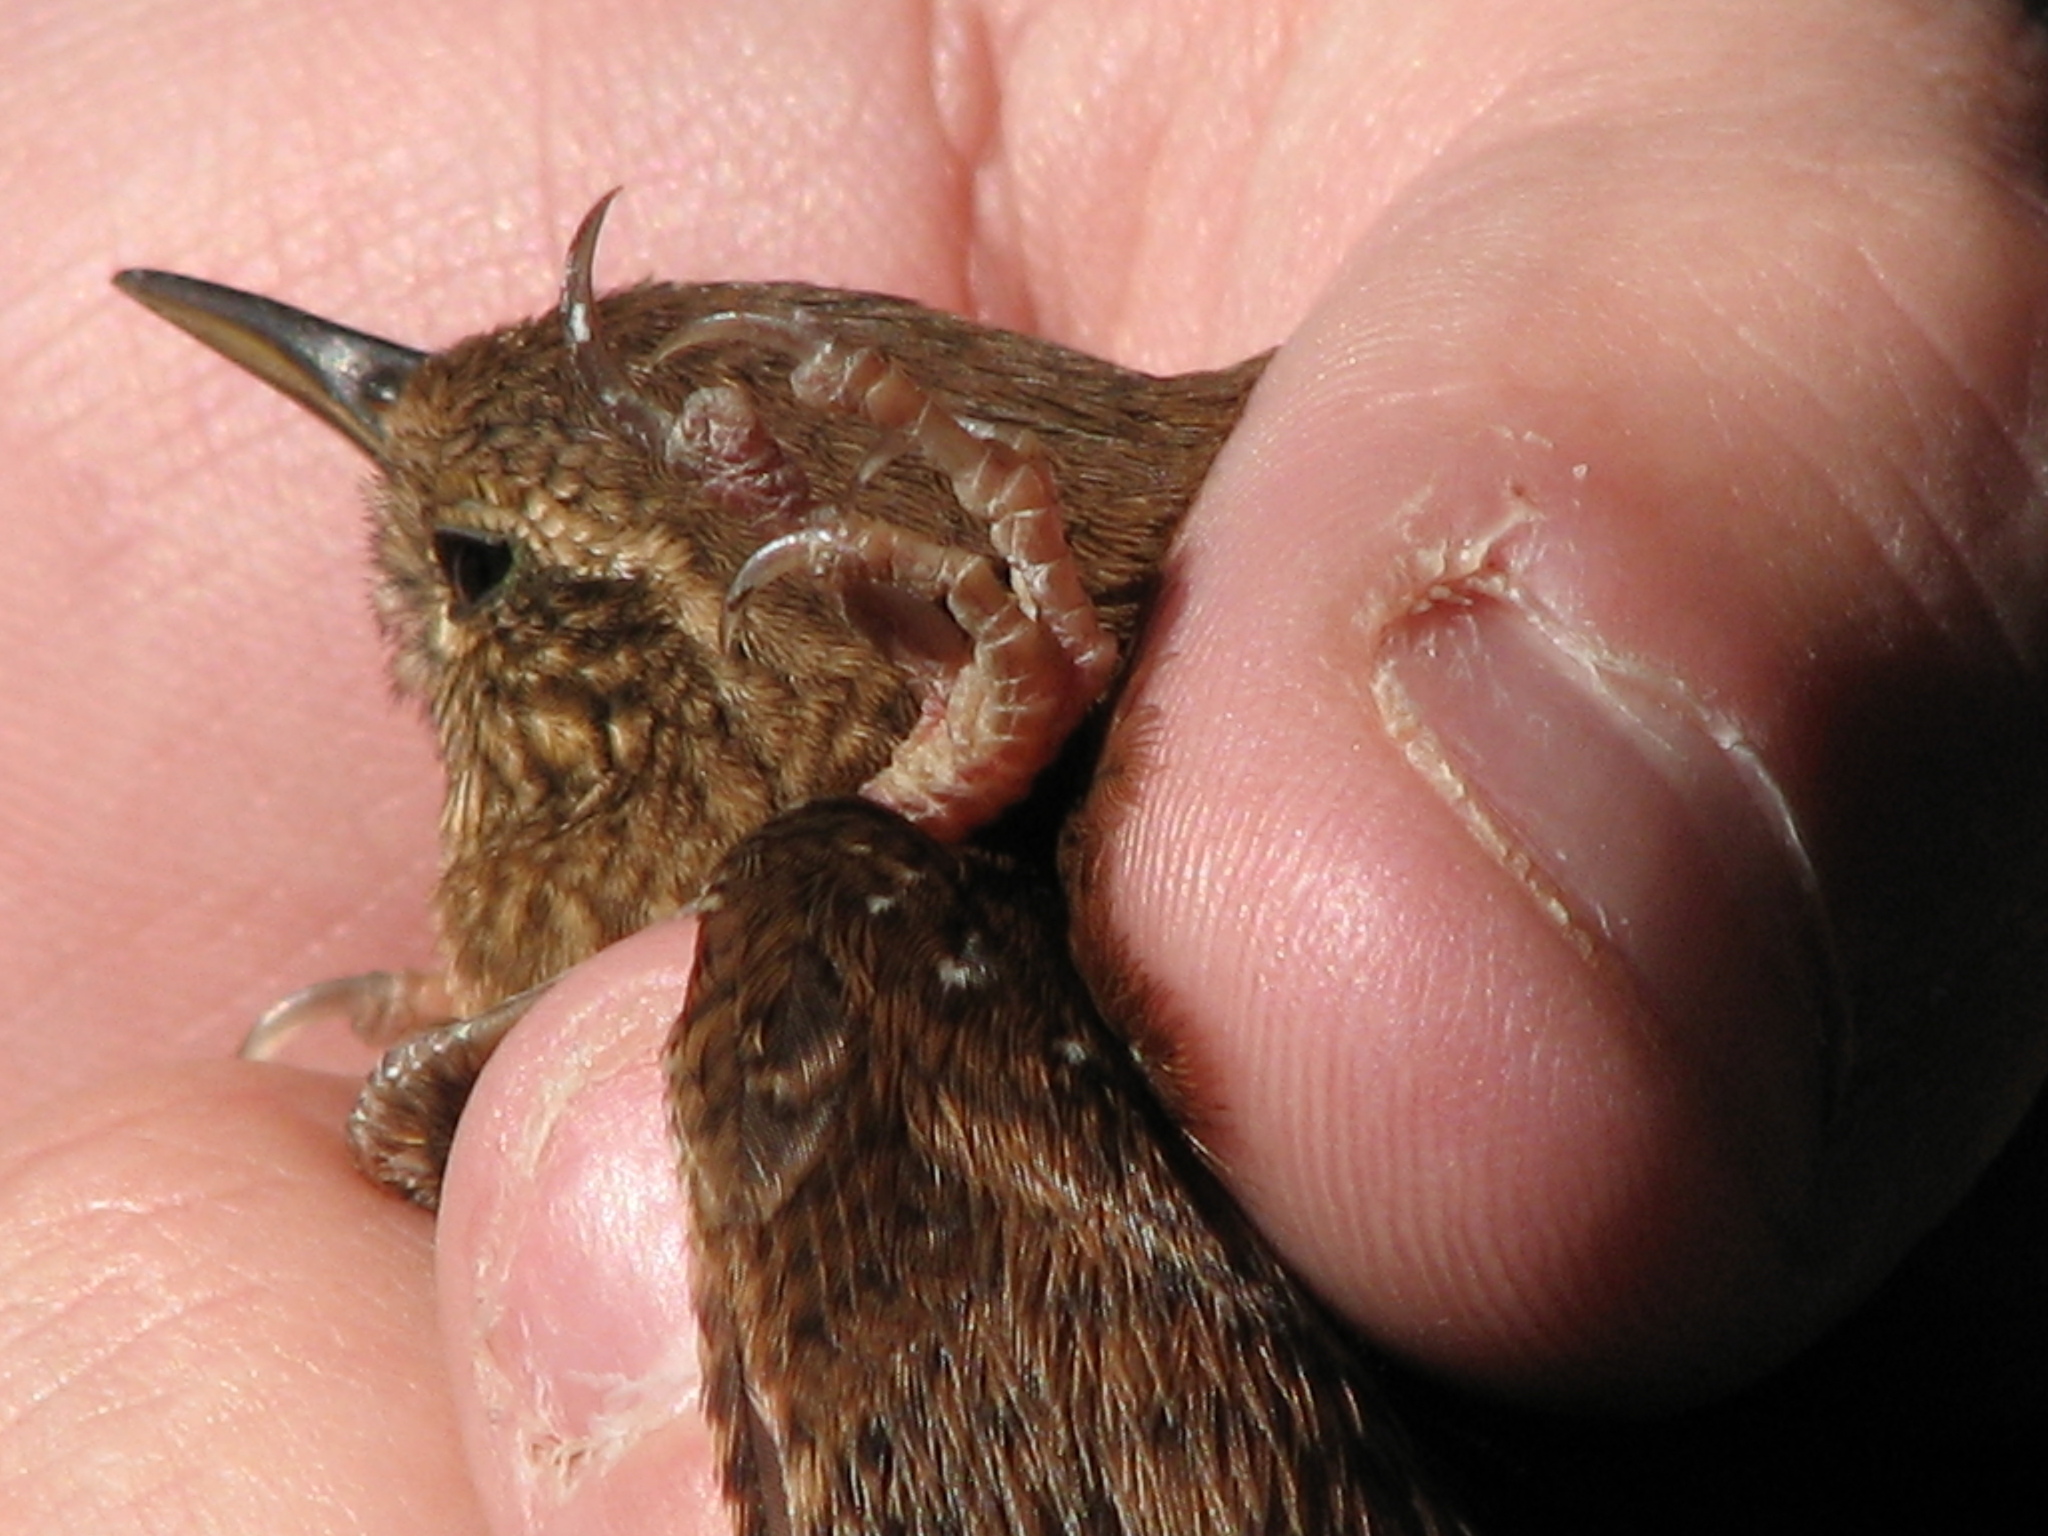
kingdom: Animalia
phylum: Chordata
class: Aves
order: Passeriformes
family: Troglodytidae
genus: Troglodytes
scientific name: Troglodytes hiemalis
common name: Winter wren
